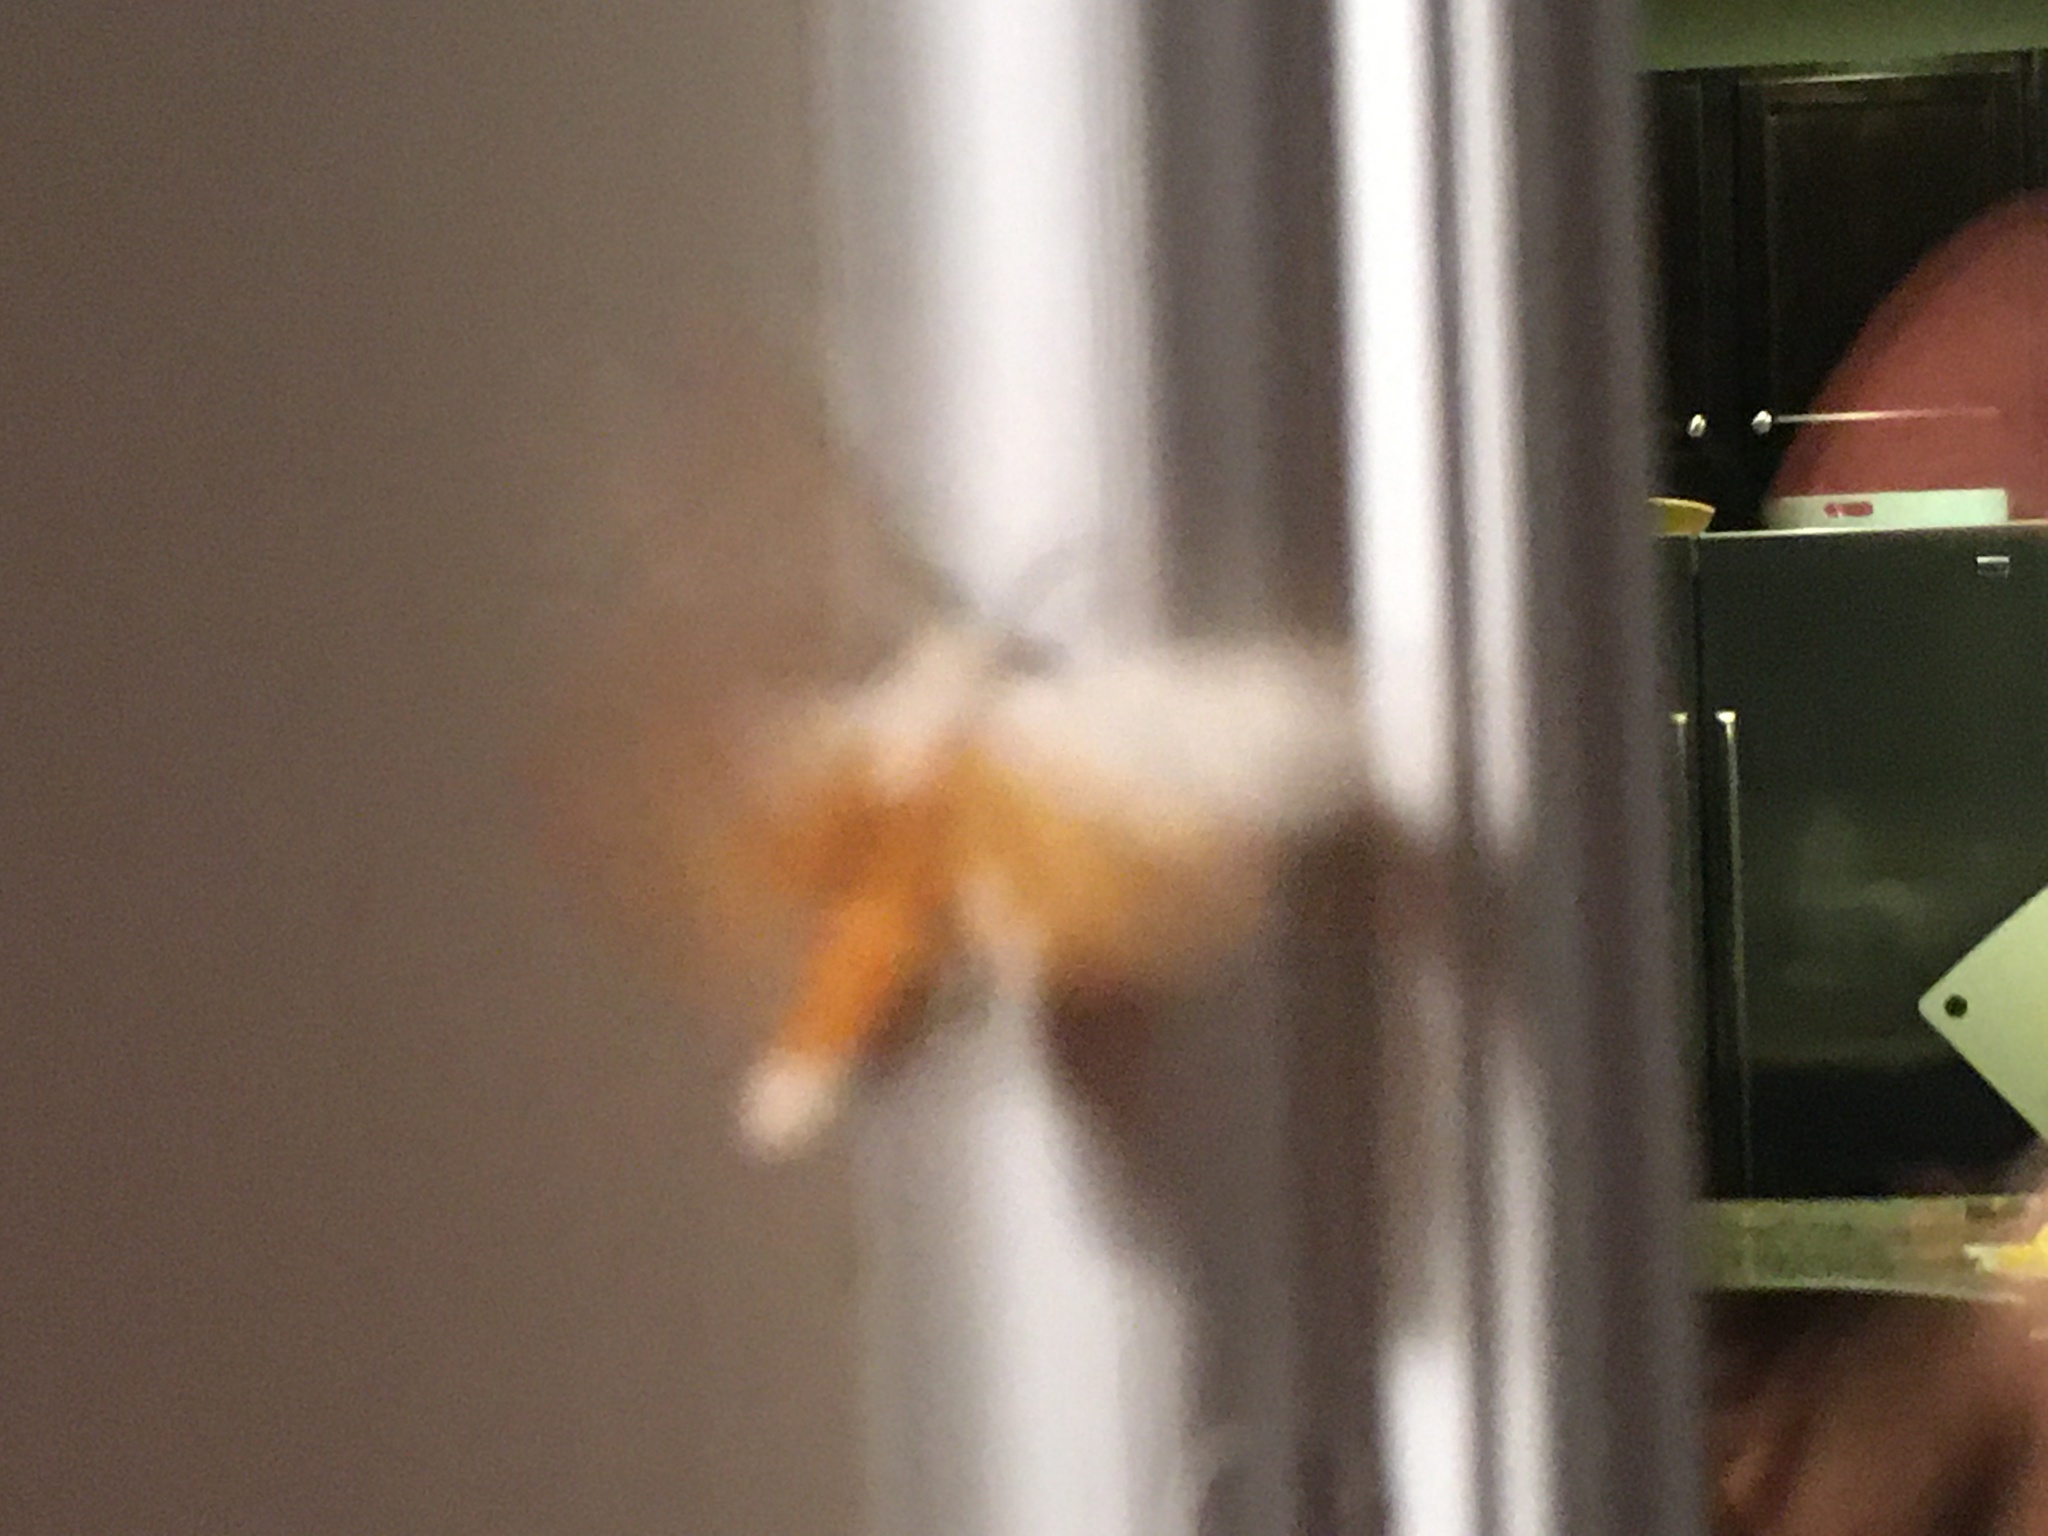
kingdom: Animalia
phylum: Arthropoda
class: Insecta
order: Lepidoptera
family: Erebidae
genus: Estigmene
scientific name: Estigmene acrea
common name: Salt marsh moth
